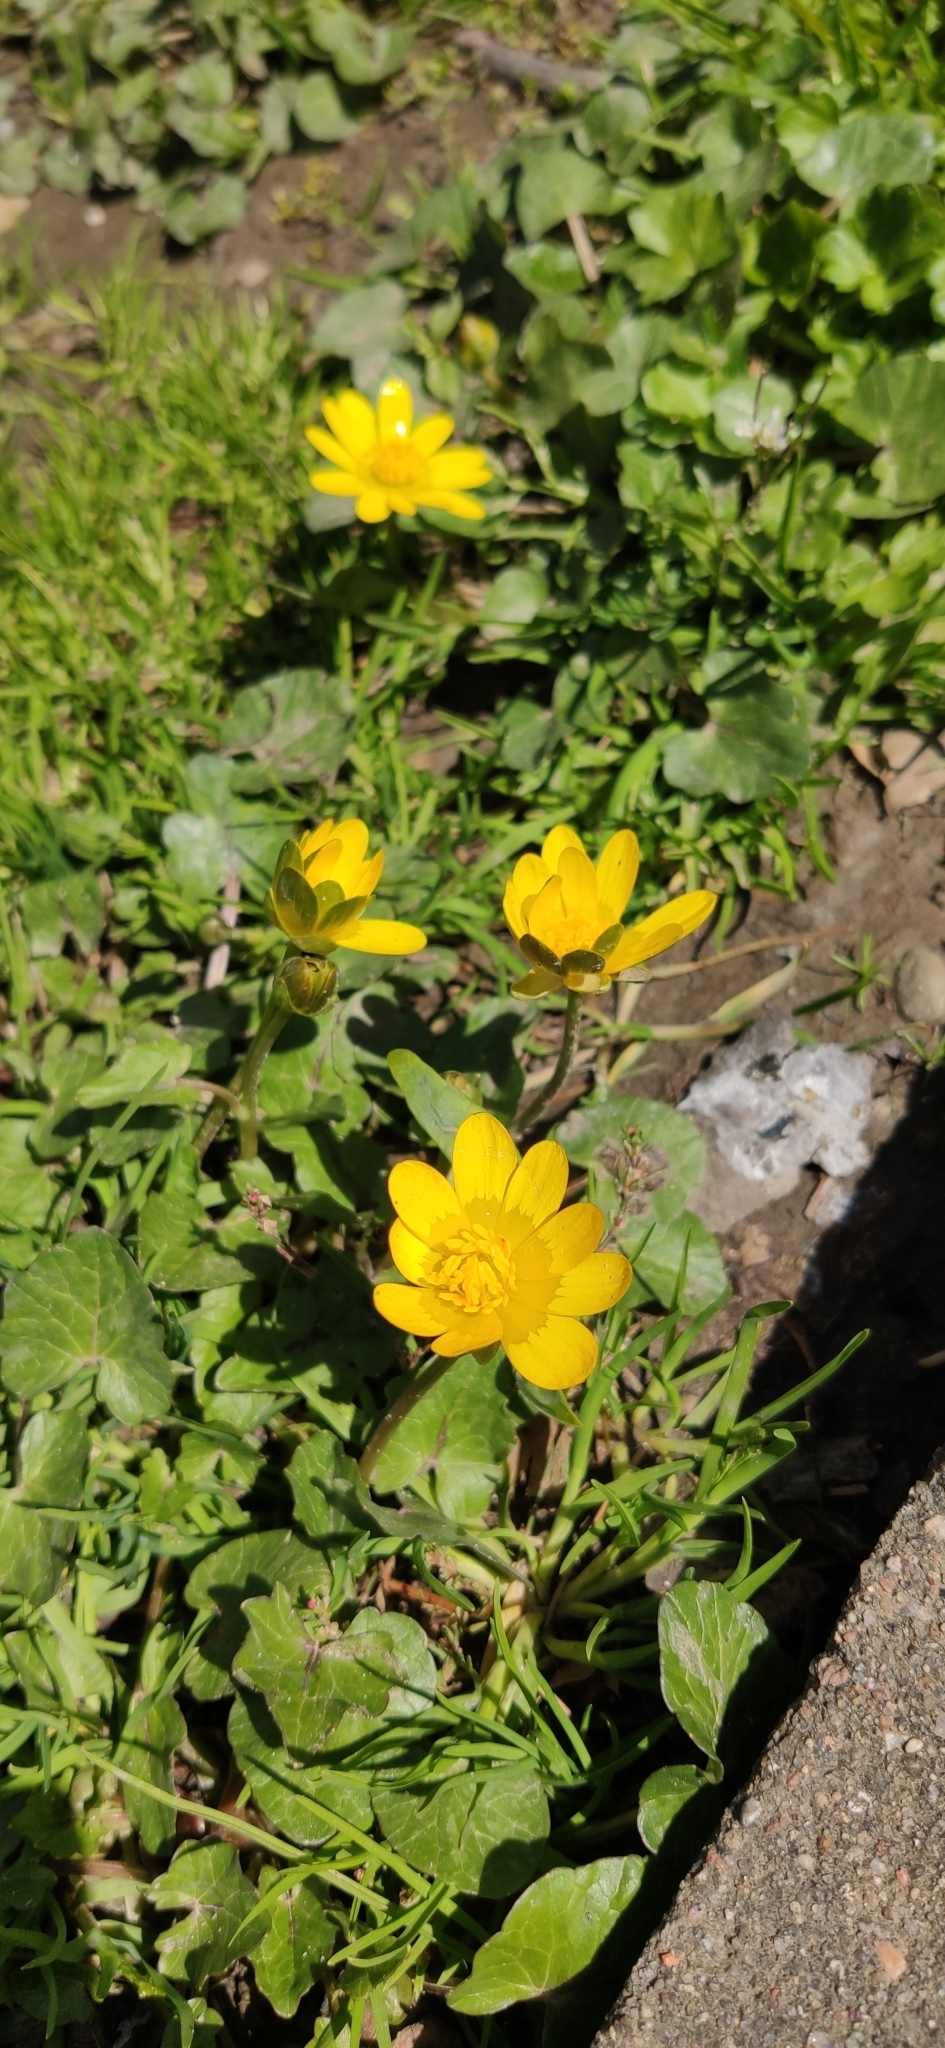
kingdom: Plantae
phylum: Tracheophyta
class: Magnoliopsida
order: Ranunculales
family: Ranunculaceae
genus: Ficaria
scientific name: Ficaria verna
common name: Lesser celandine
